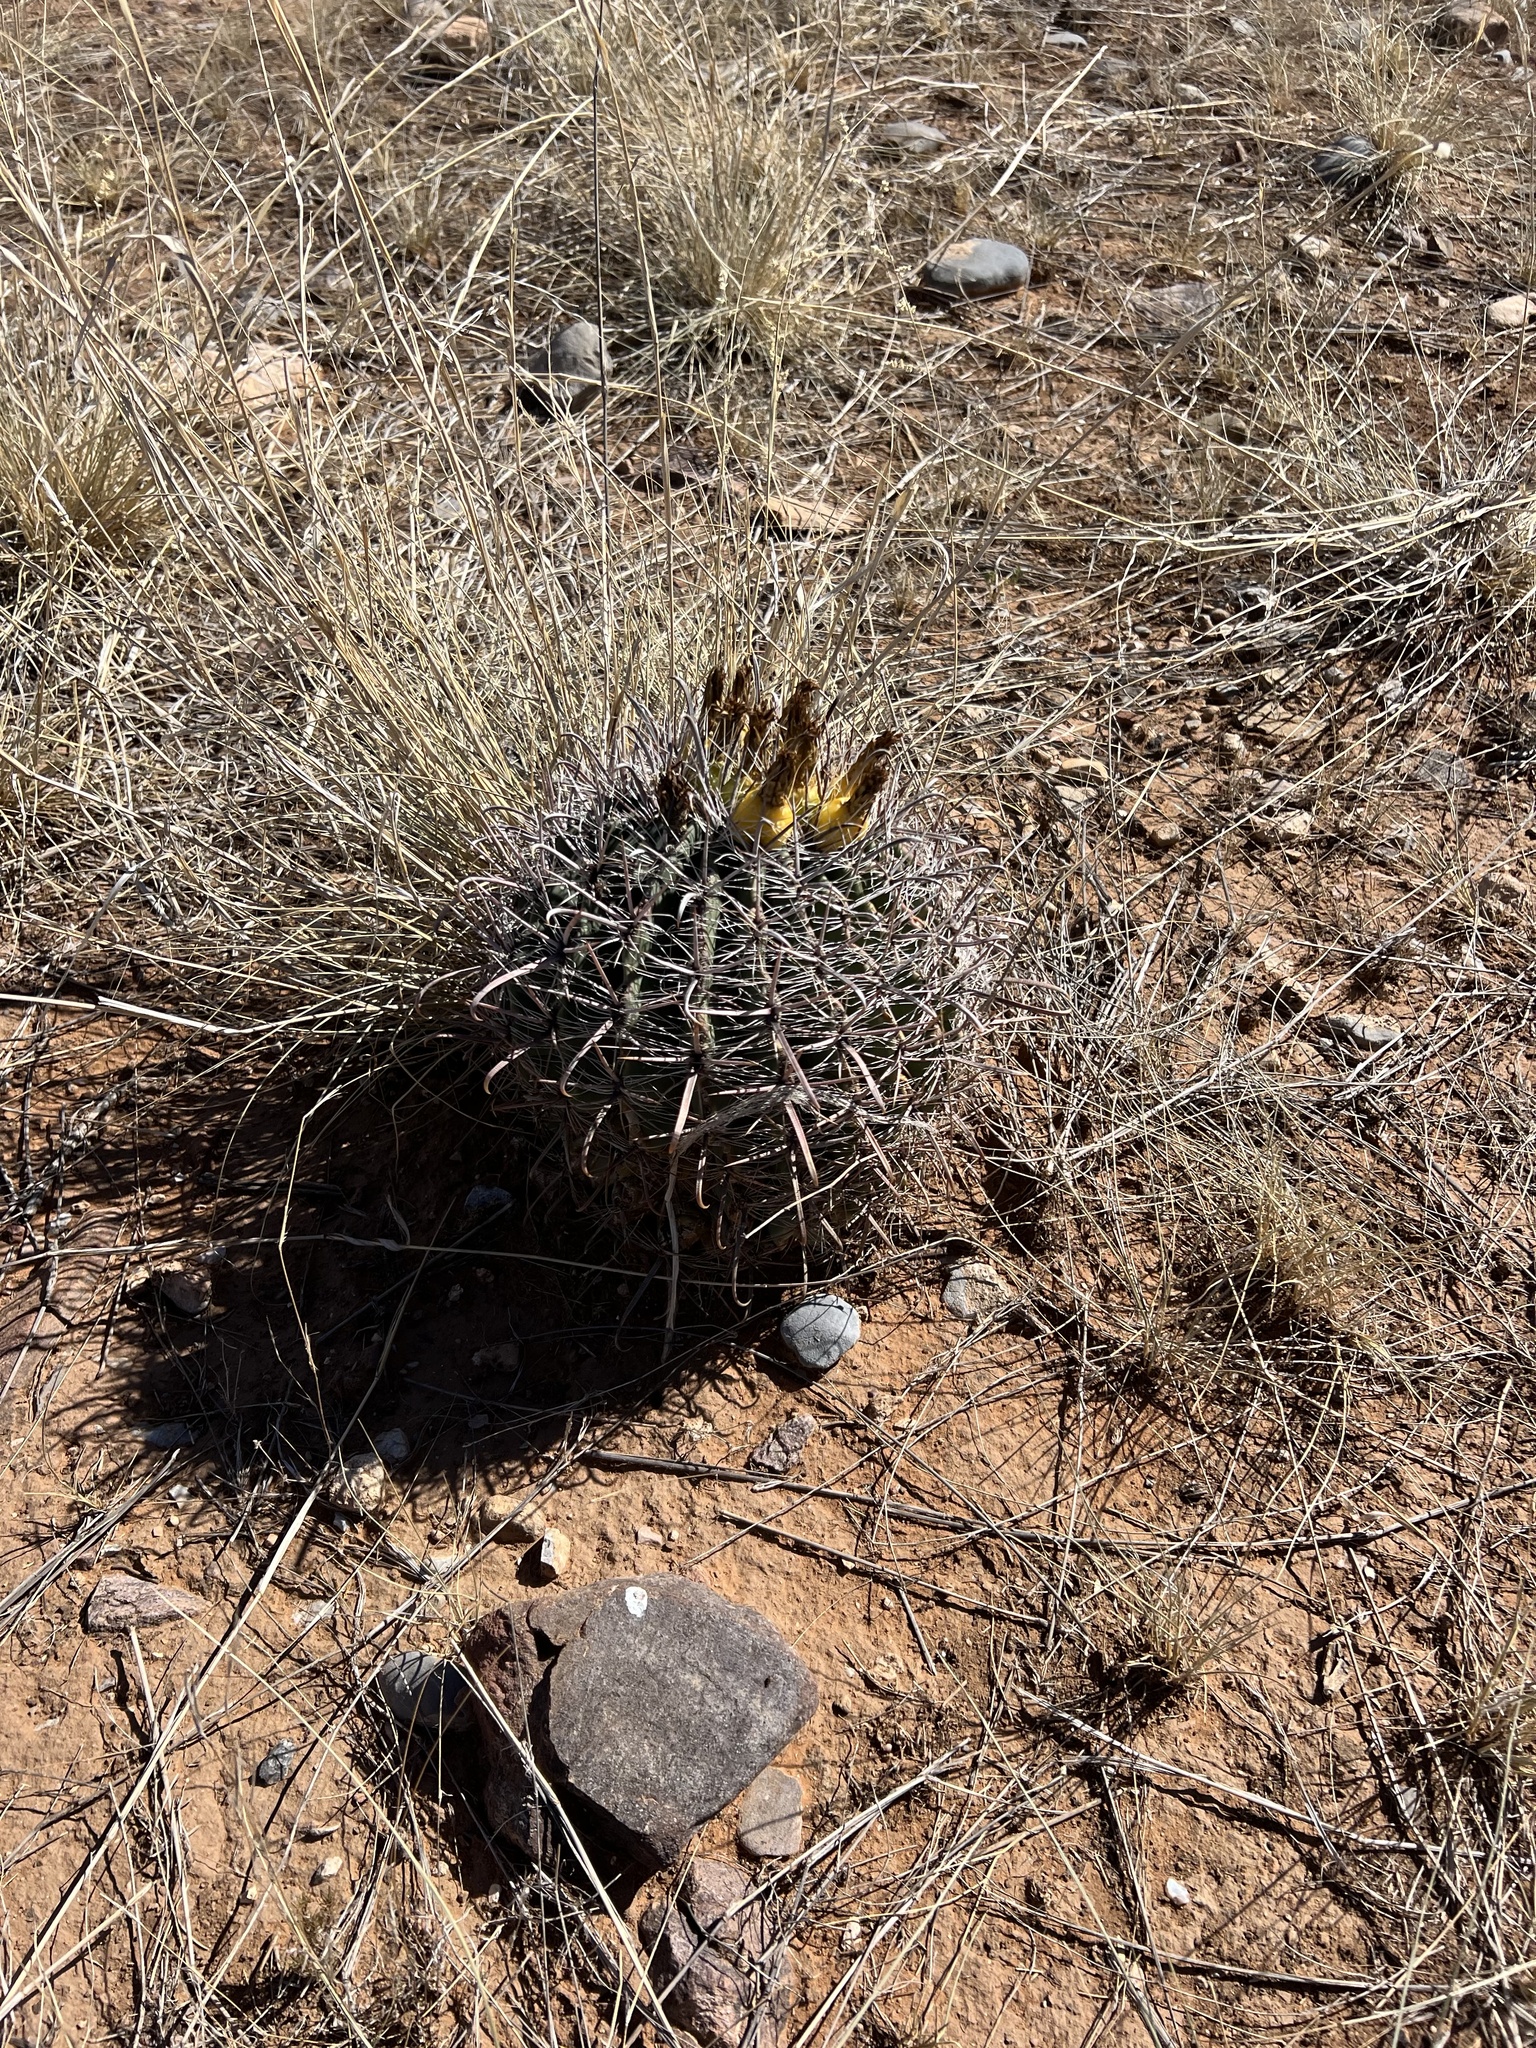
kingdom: Plantae
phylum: Tracheophyta
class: Magnoliopsida
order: Caryophyllales
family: Cactaceae
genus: Ferocactus
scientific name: Ferocactus wislizeni
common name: Candy barrel cactus
